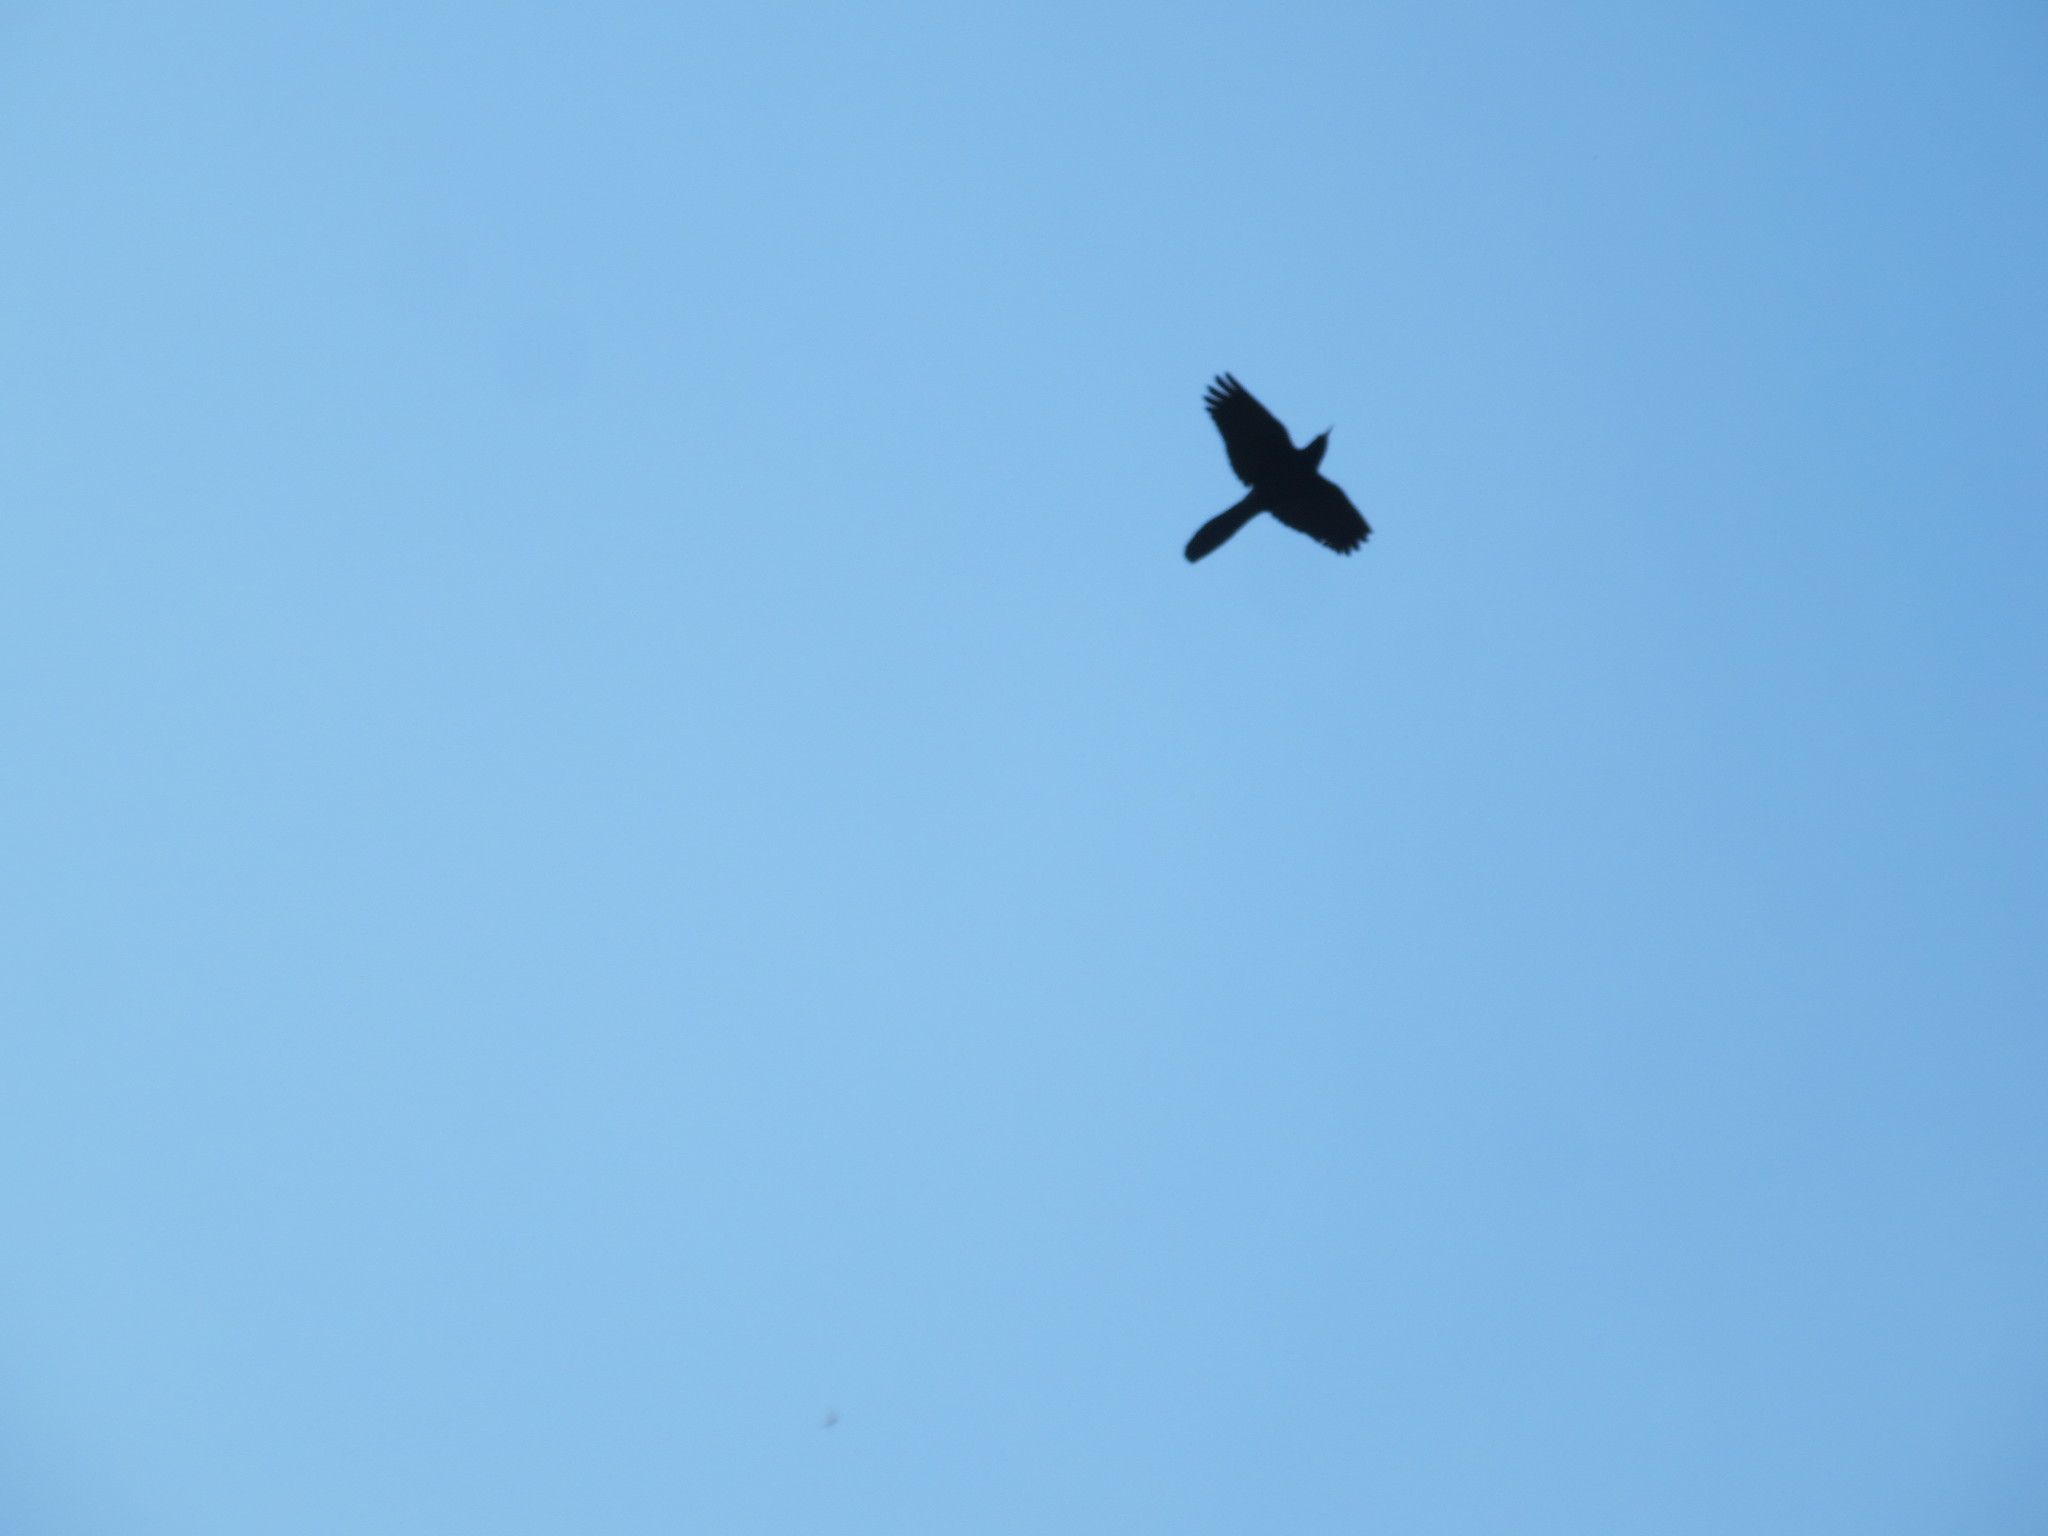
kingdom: Animalia
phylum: Chordata
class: Aves
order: Passeriformes
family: Icteridae
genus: Quiscalus
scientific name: Quiscalus major
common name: Boat-tailed grackle
